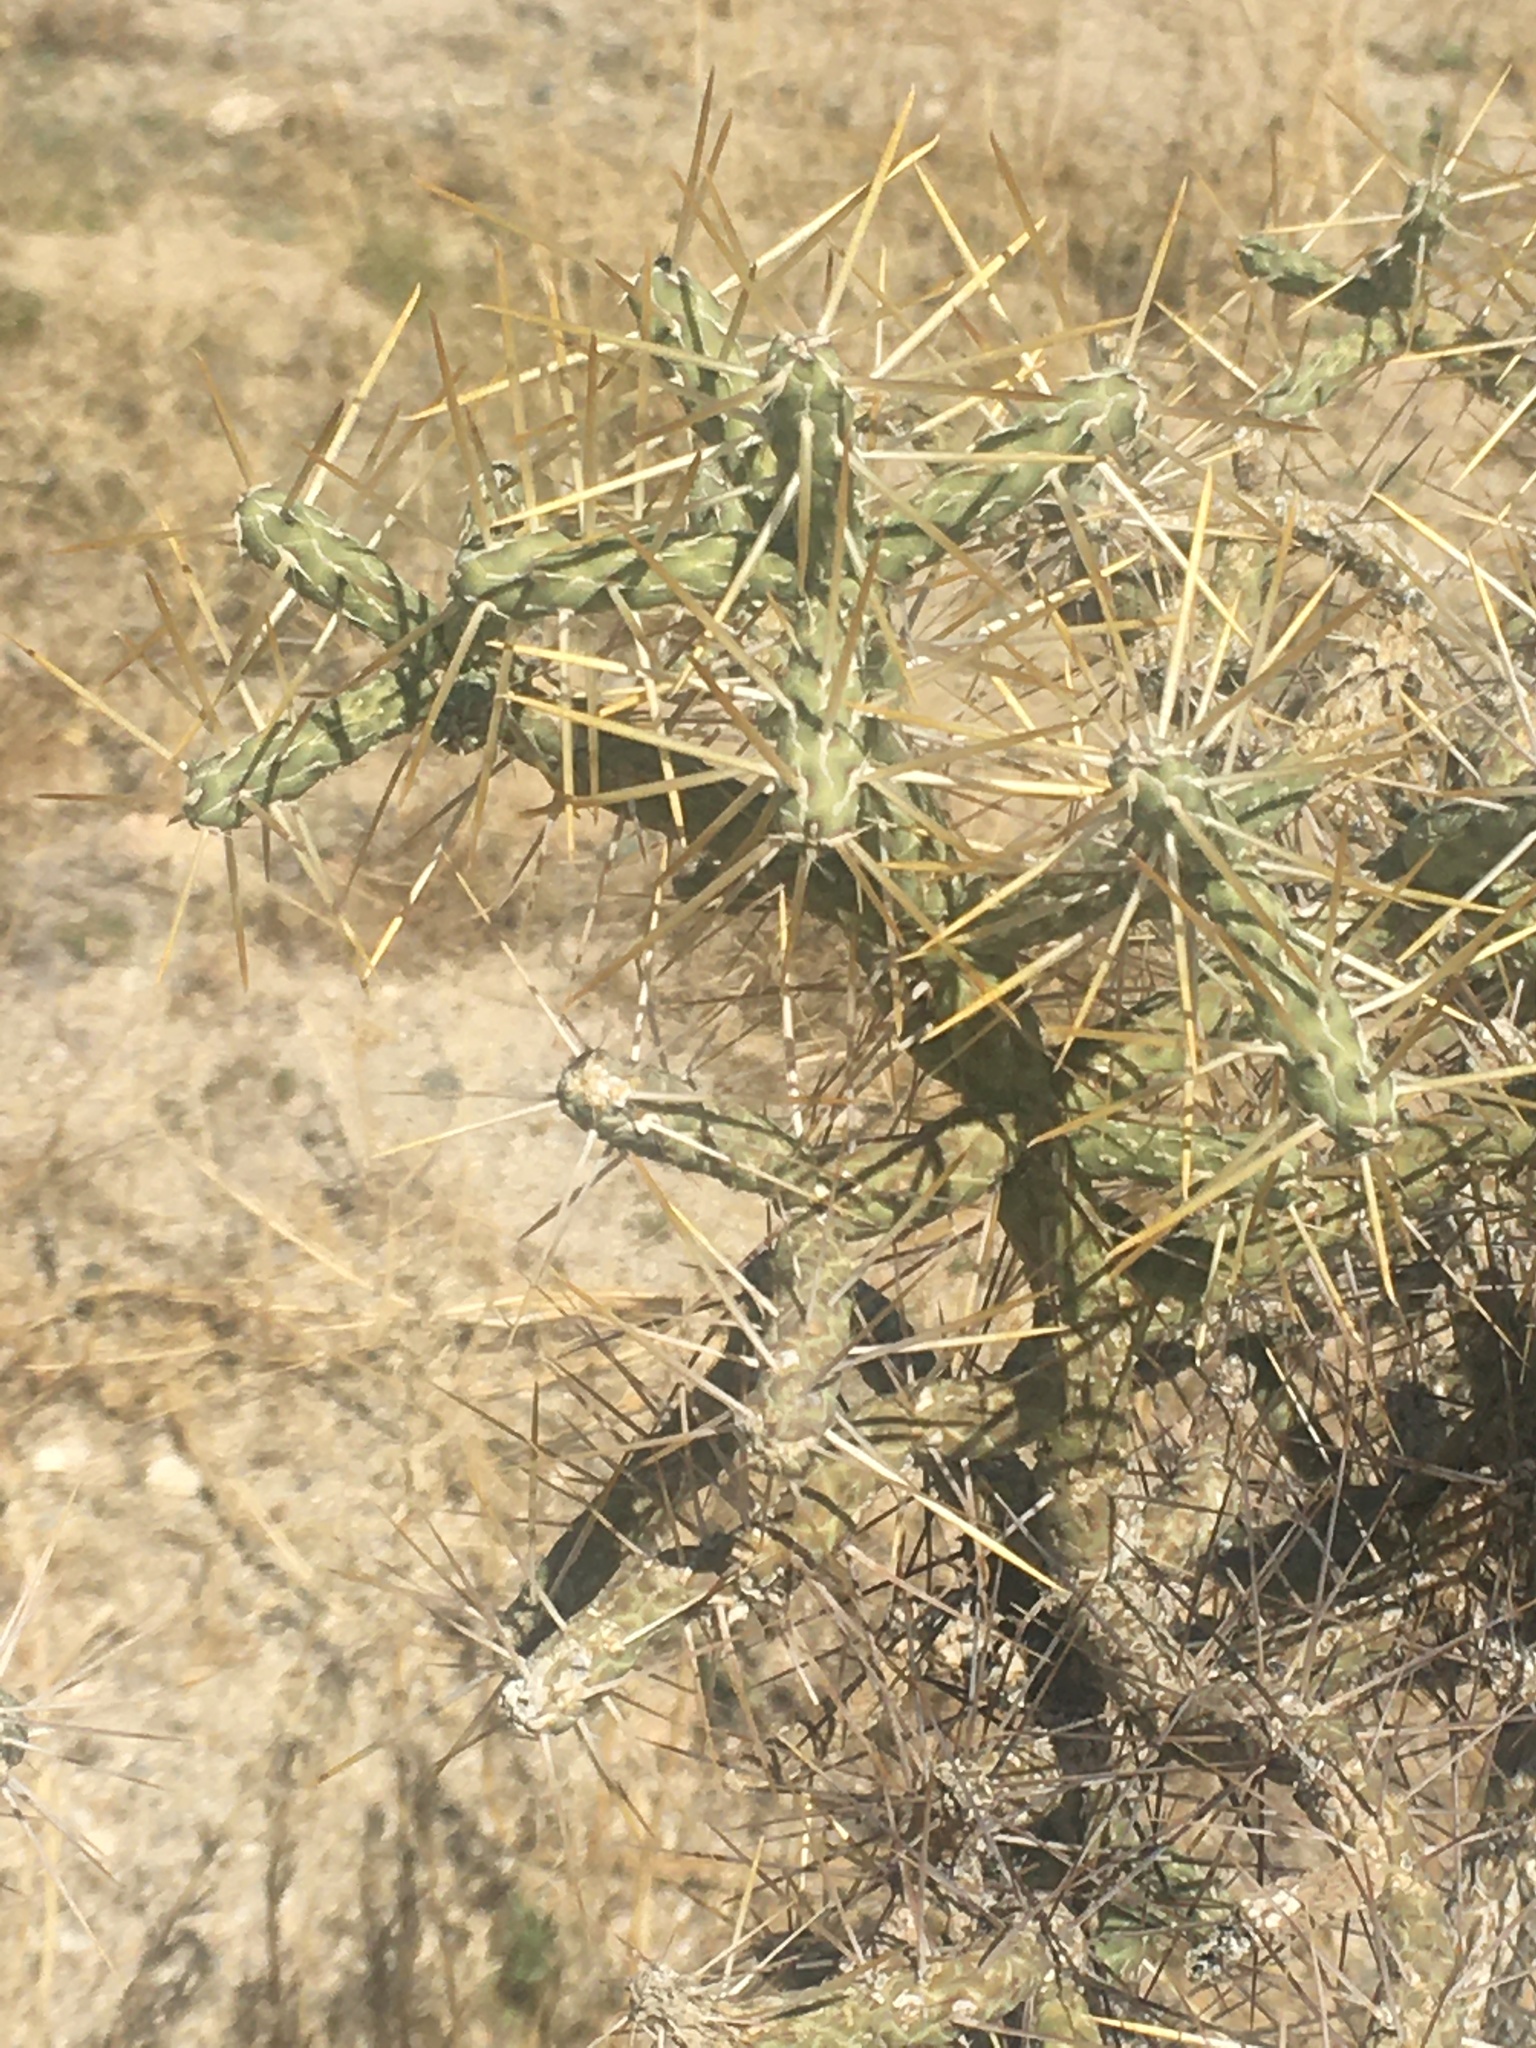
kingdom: Plantae
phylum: Tracheophyta
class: Magnoliopsida
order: Caryophyllales
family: Cactaceae
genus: Cylindropuntia
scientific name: Cylindropuntia ramosissima
